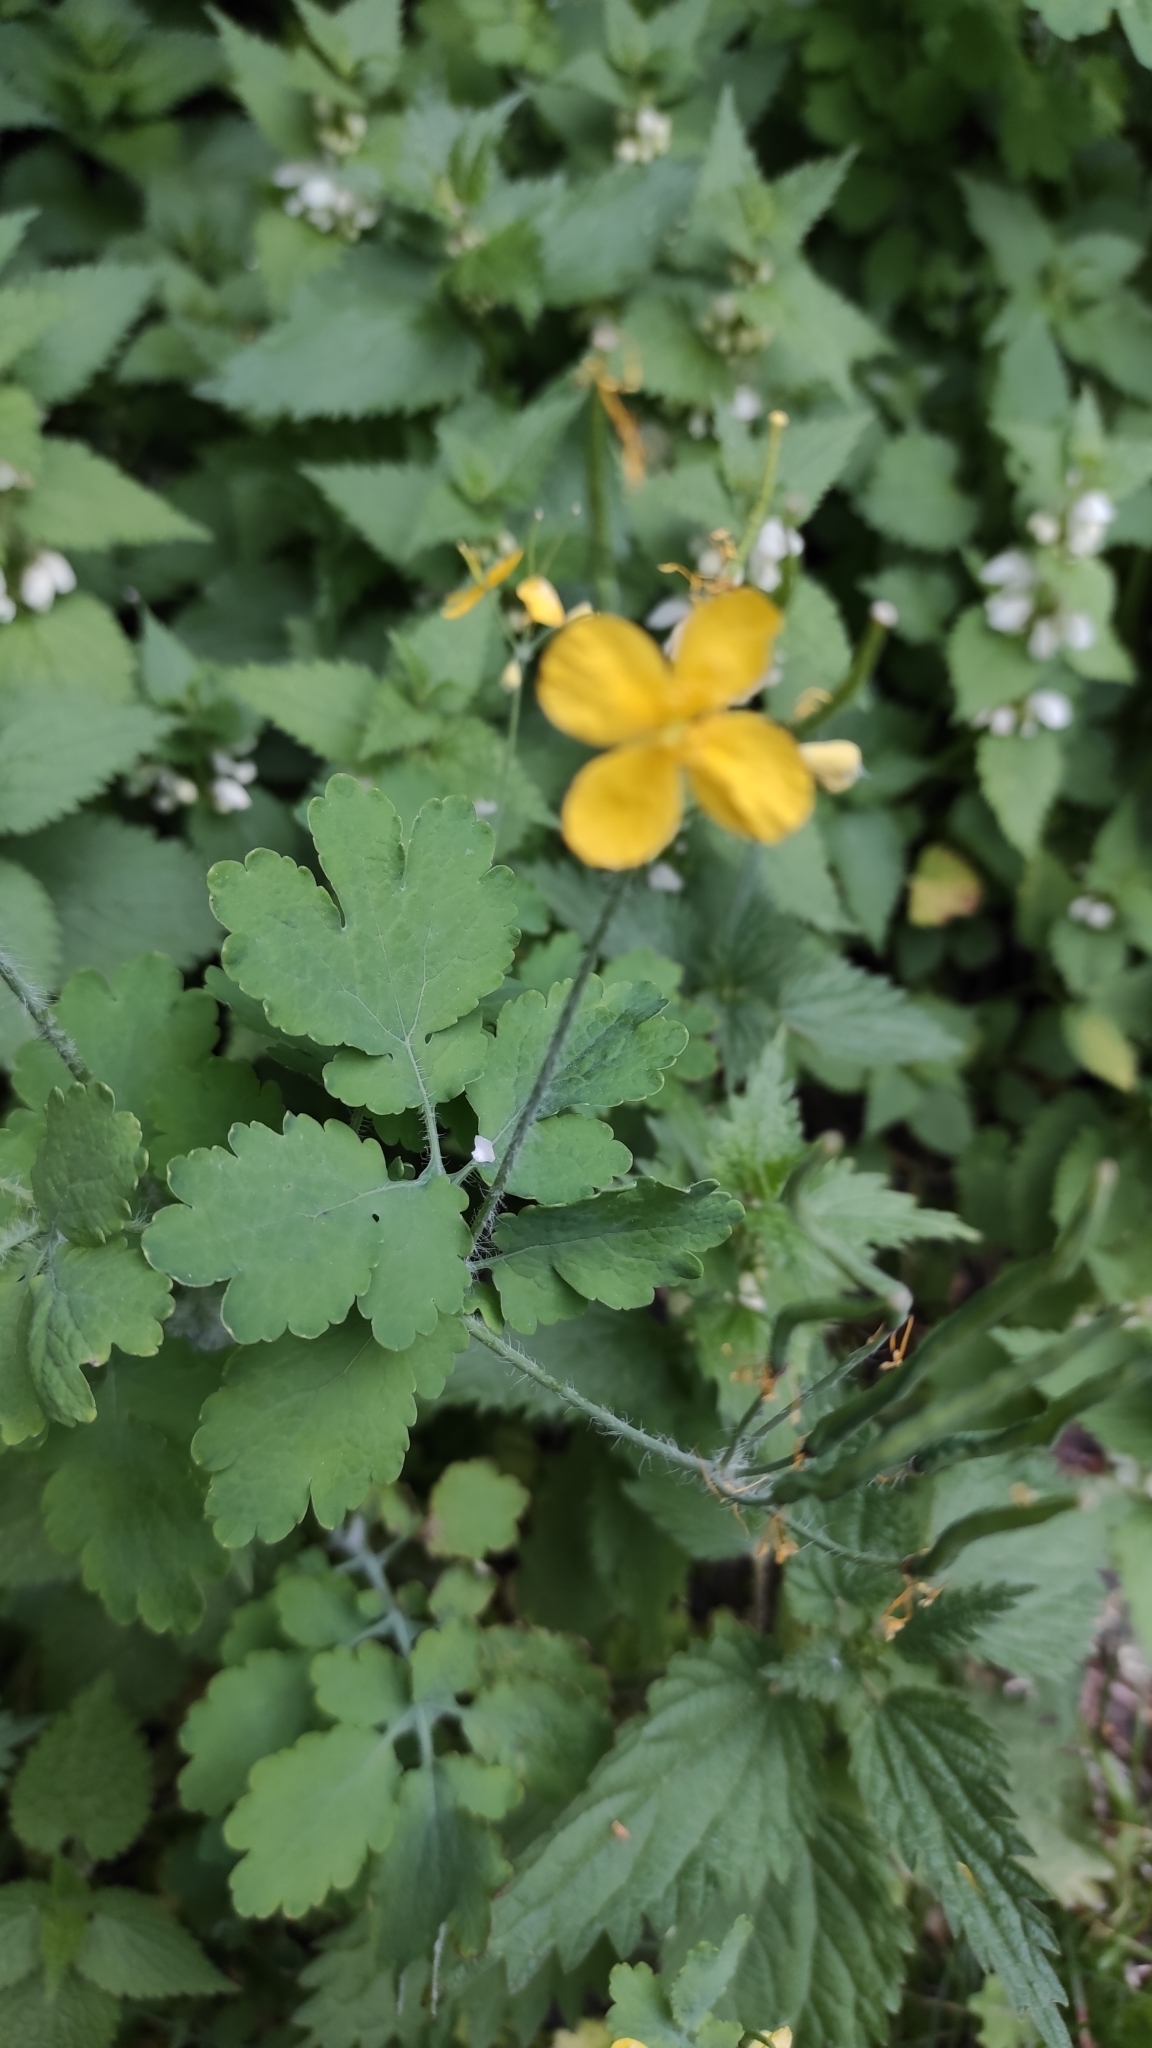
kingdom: Plantae
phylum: Tracheophyta
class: Magnoliopsida
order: Ranunculales
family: Papaveraceae
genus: Chelidonium
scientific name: Chelidonium majus
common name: Greater celandine
